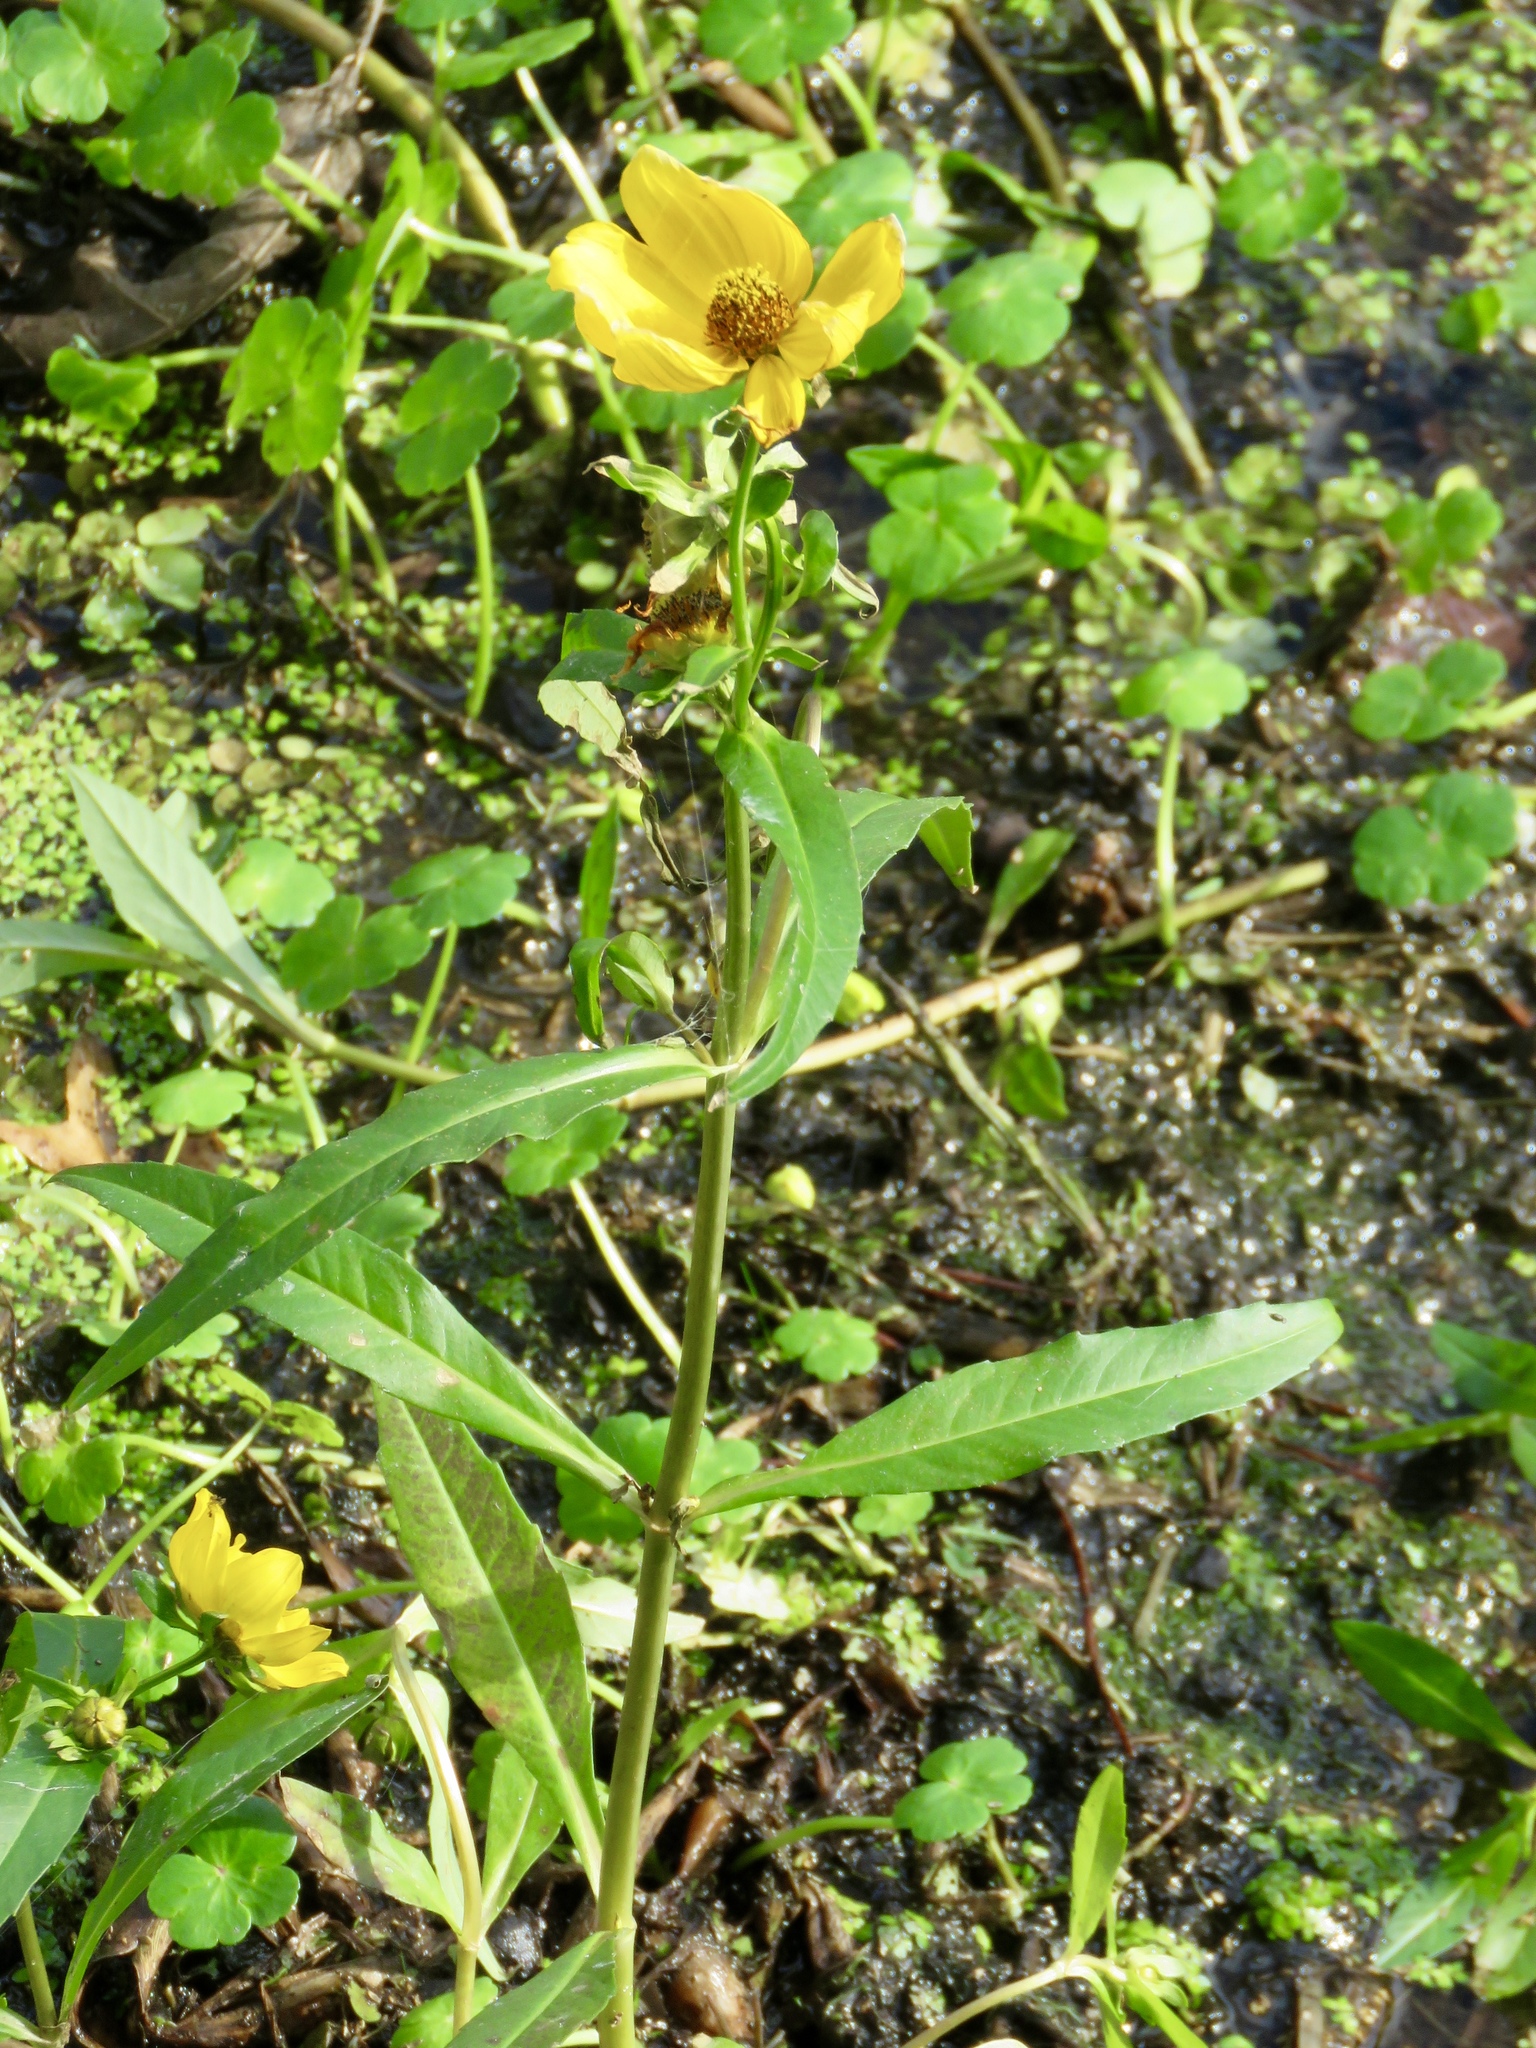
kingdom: Plantae
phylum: Tracheophyta
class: Magnoliopsida
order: Asterales
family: Asteraceae
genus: Bidens
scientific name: Bidens laevis
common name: Larger bur-marigold
